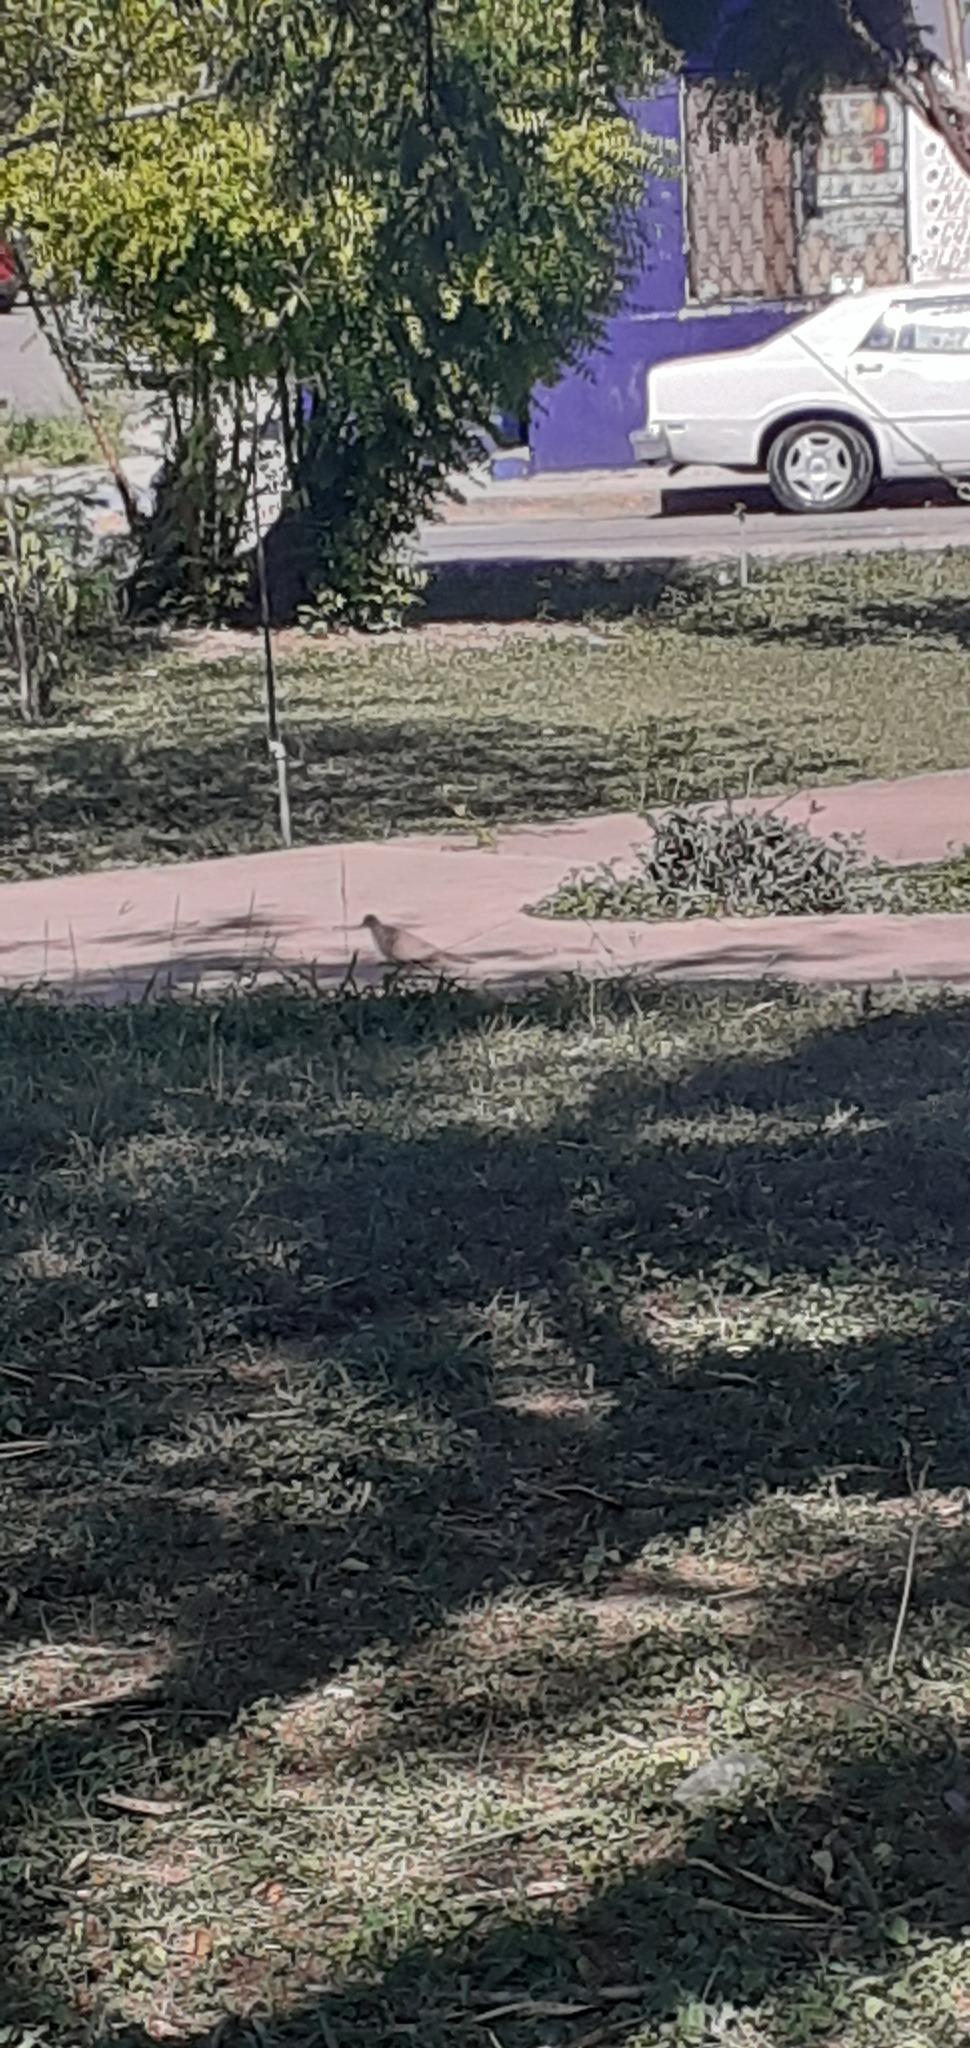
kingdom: Animalia
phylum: Chordata
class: Aves
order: Columbiformes
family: Columbidae
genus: Streptopelia
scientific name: Streptopelia decaocto
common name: Eurasian collared dove
